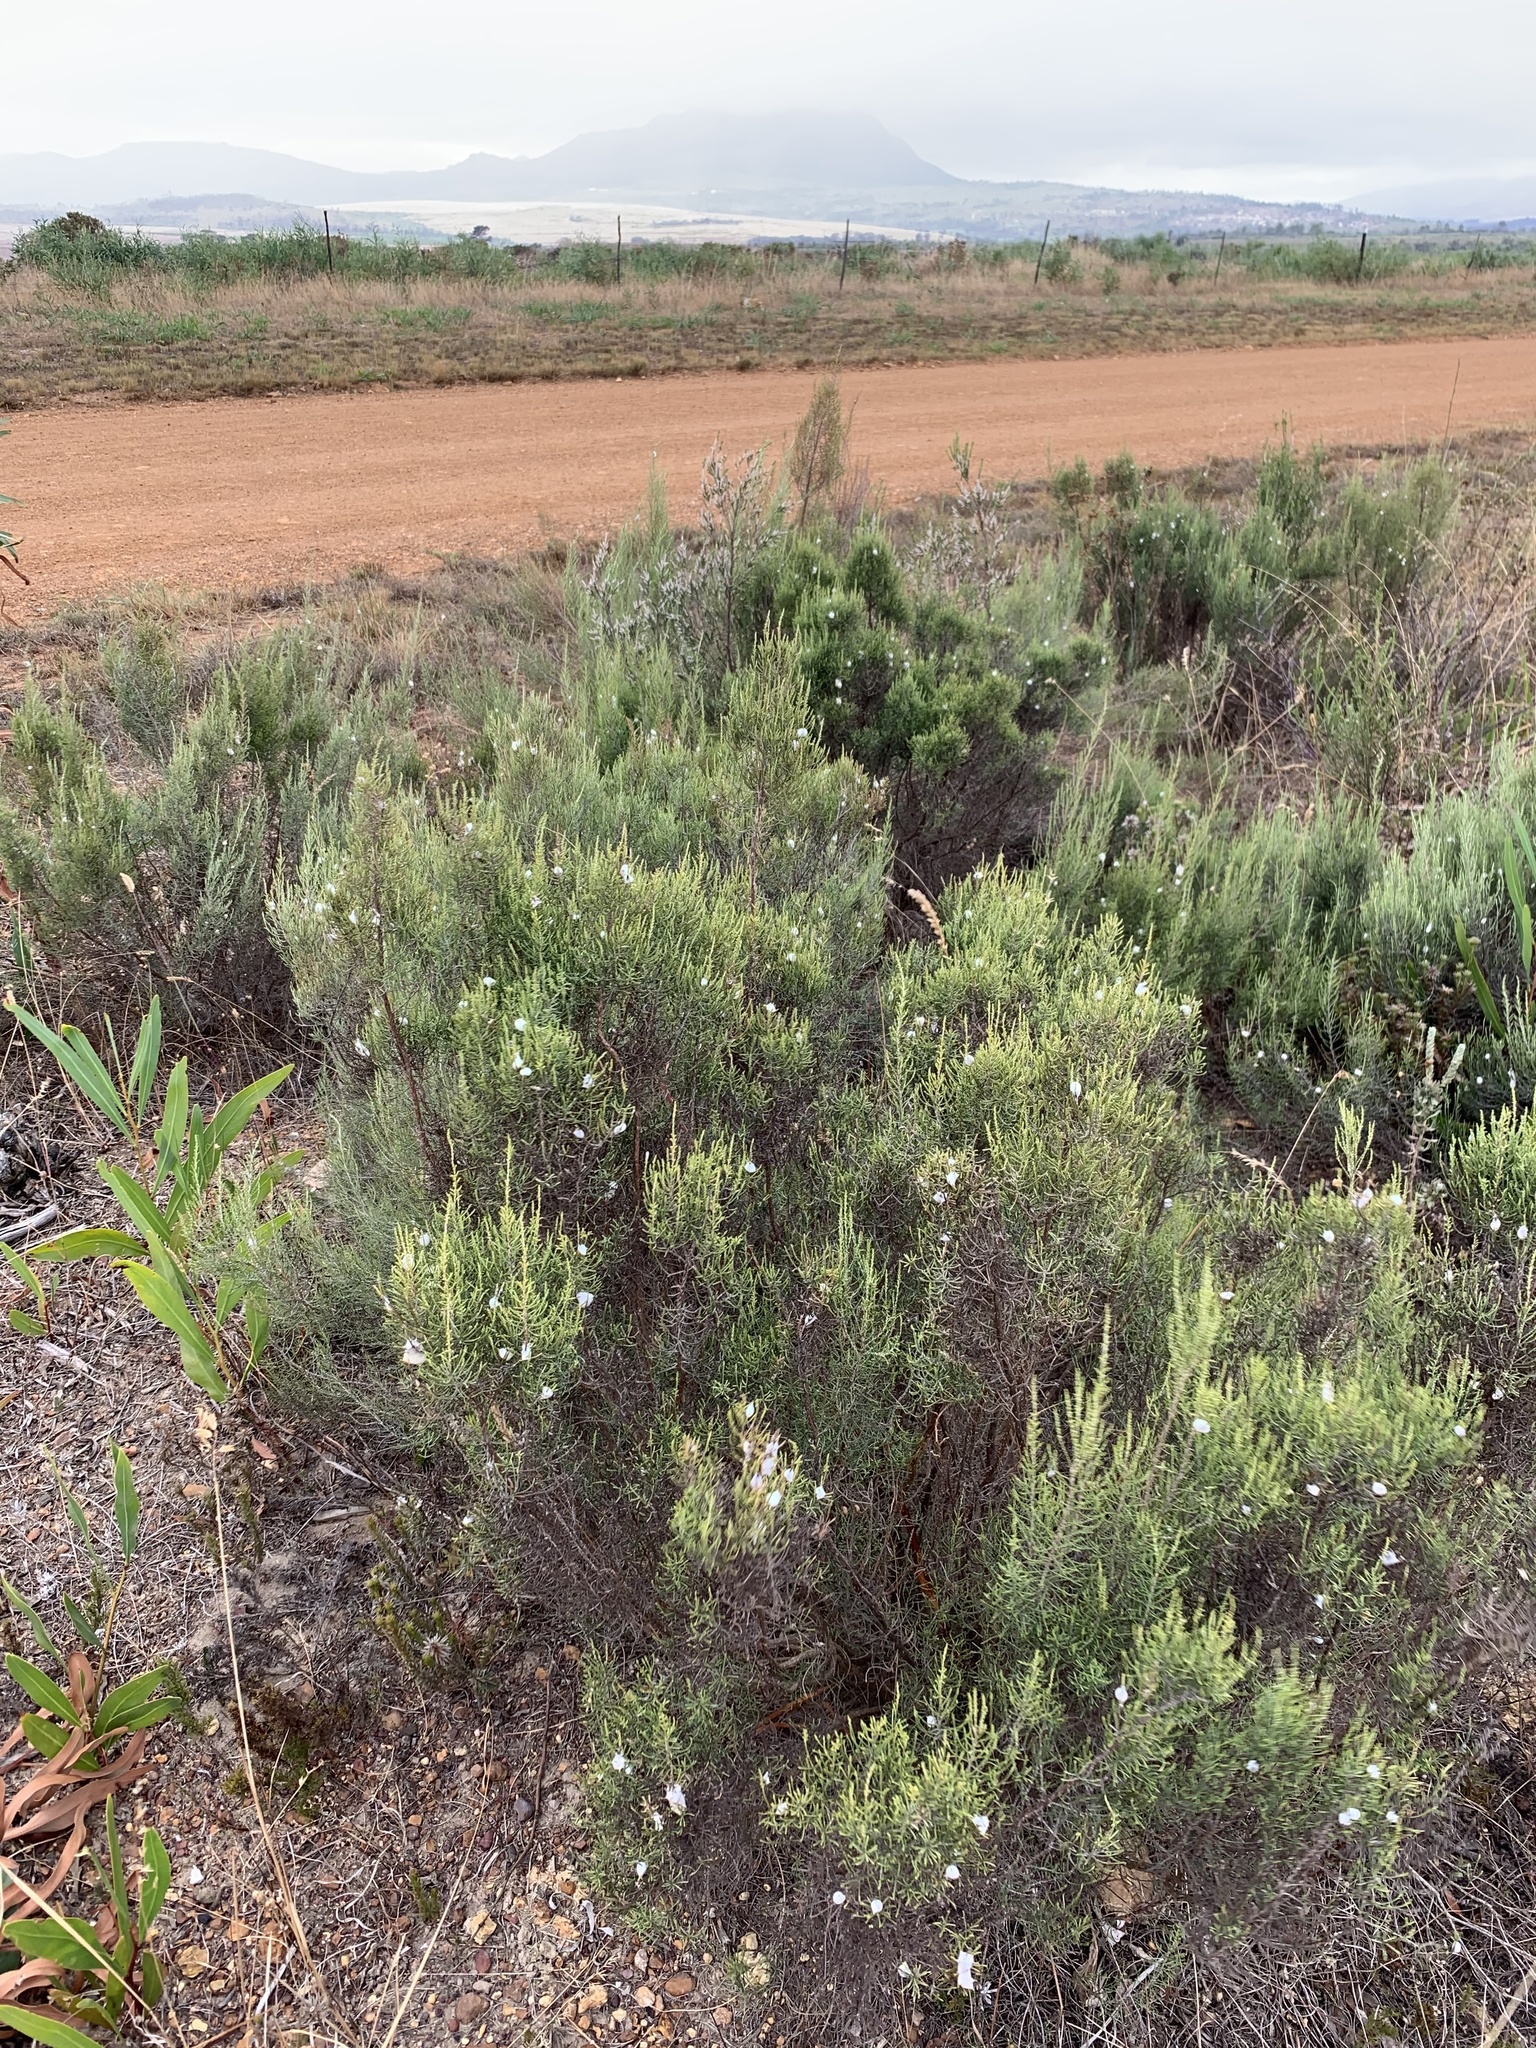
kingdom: Plantae
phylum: Tracheophyta
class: Magnoliopsida
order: Asterales
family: Asteraceae
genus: Dicerothamnus
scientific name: Dicerothamnus rhinocerotis
